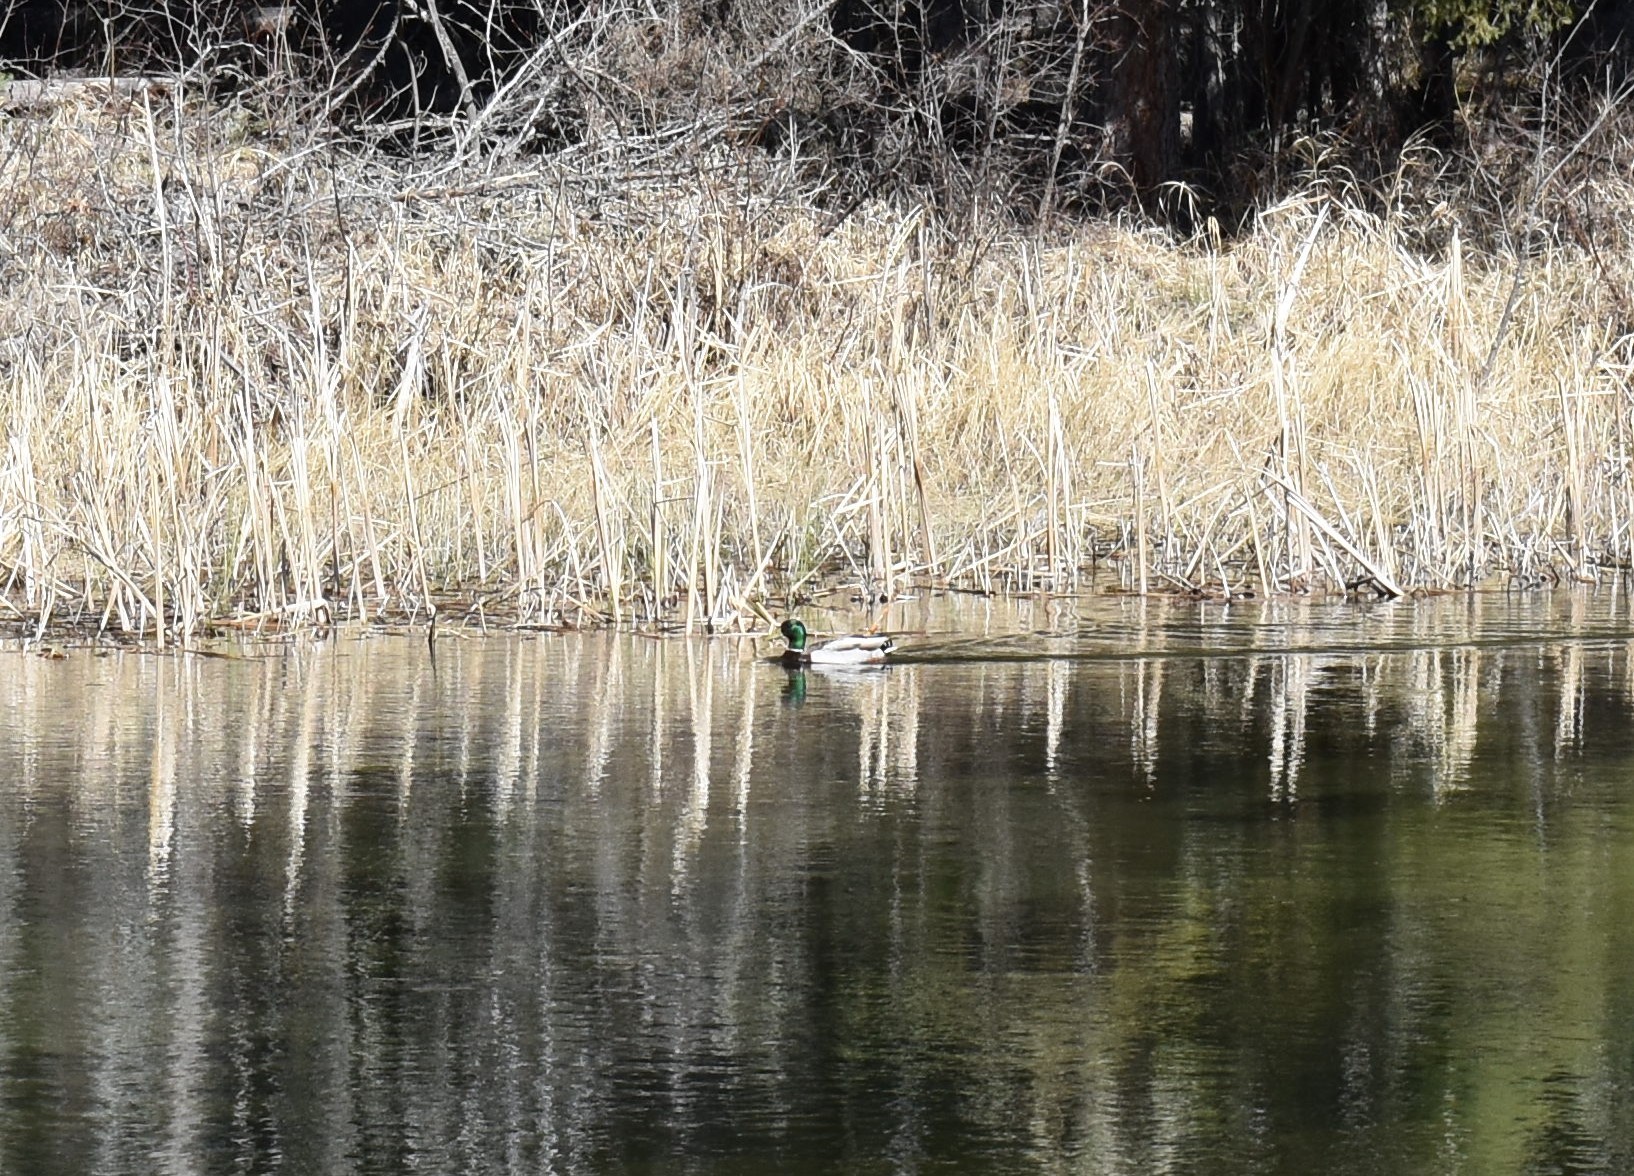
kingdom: Animalia
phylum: Chordata
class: Aves
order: Anseriformes
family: Anatidae
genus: Anas
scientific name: Anas platyrhynchos
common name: Mallard
